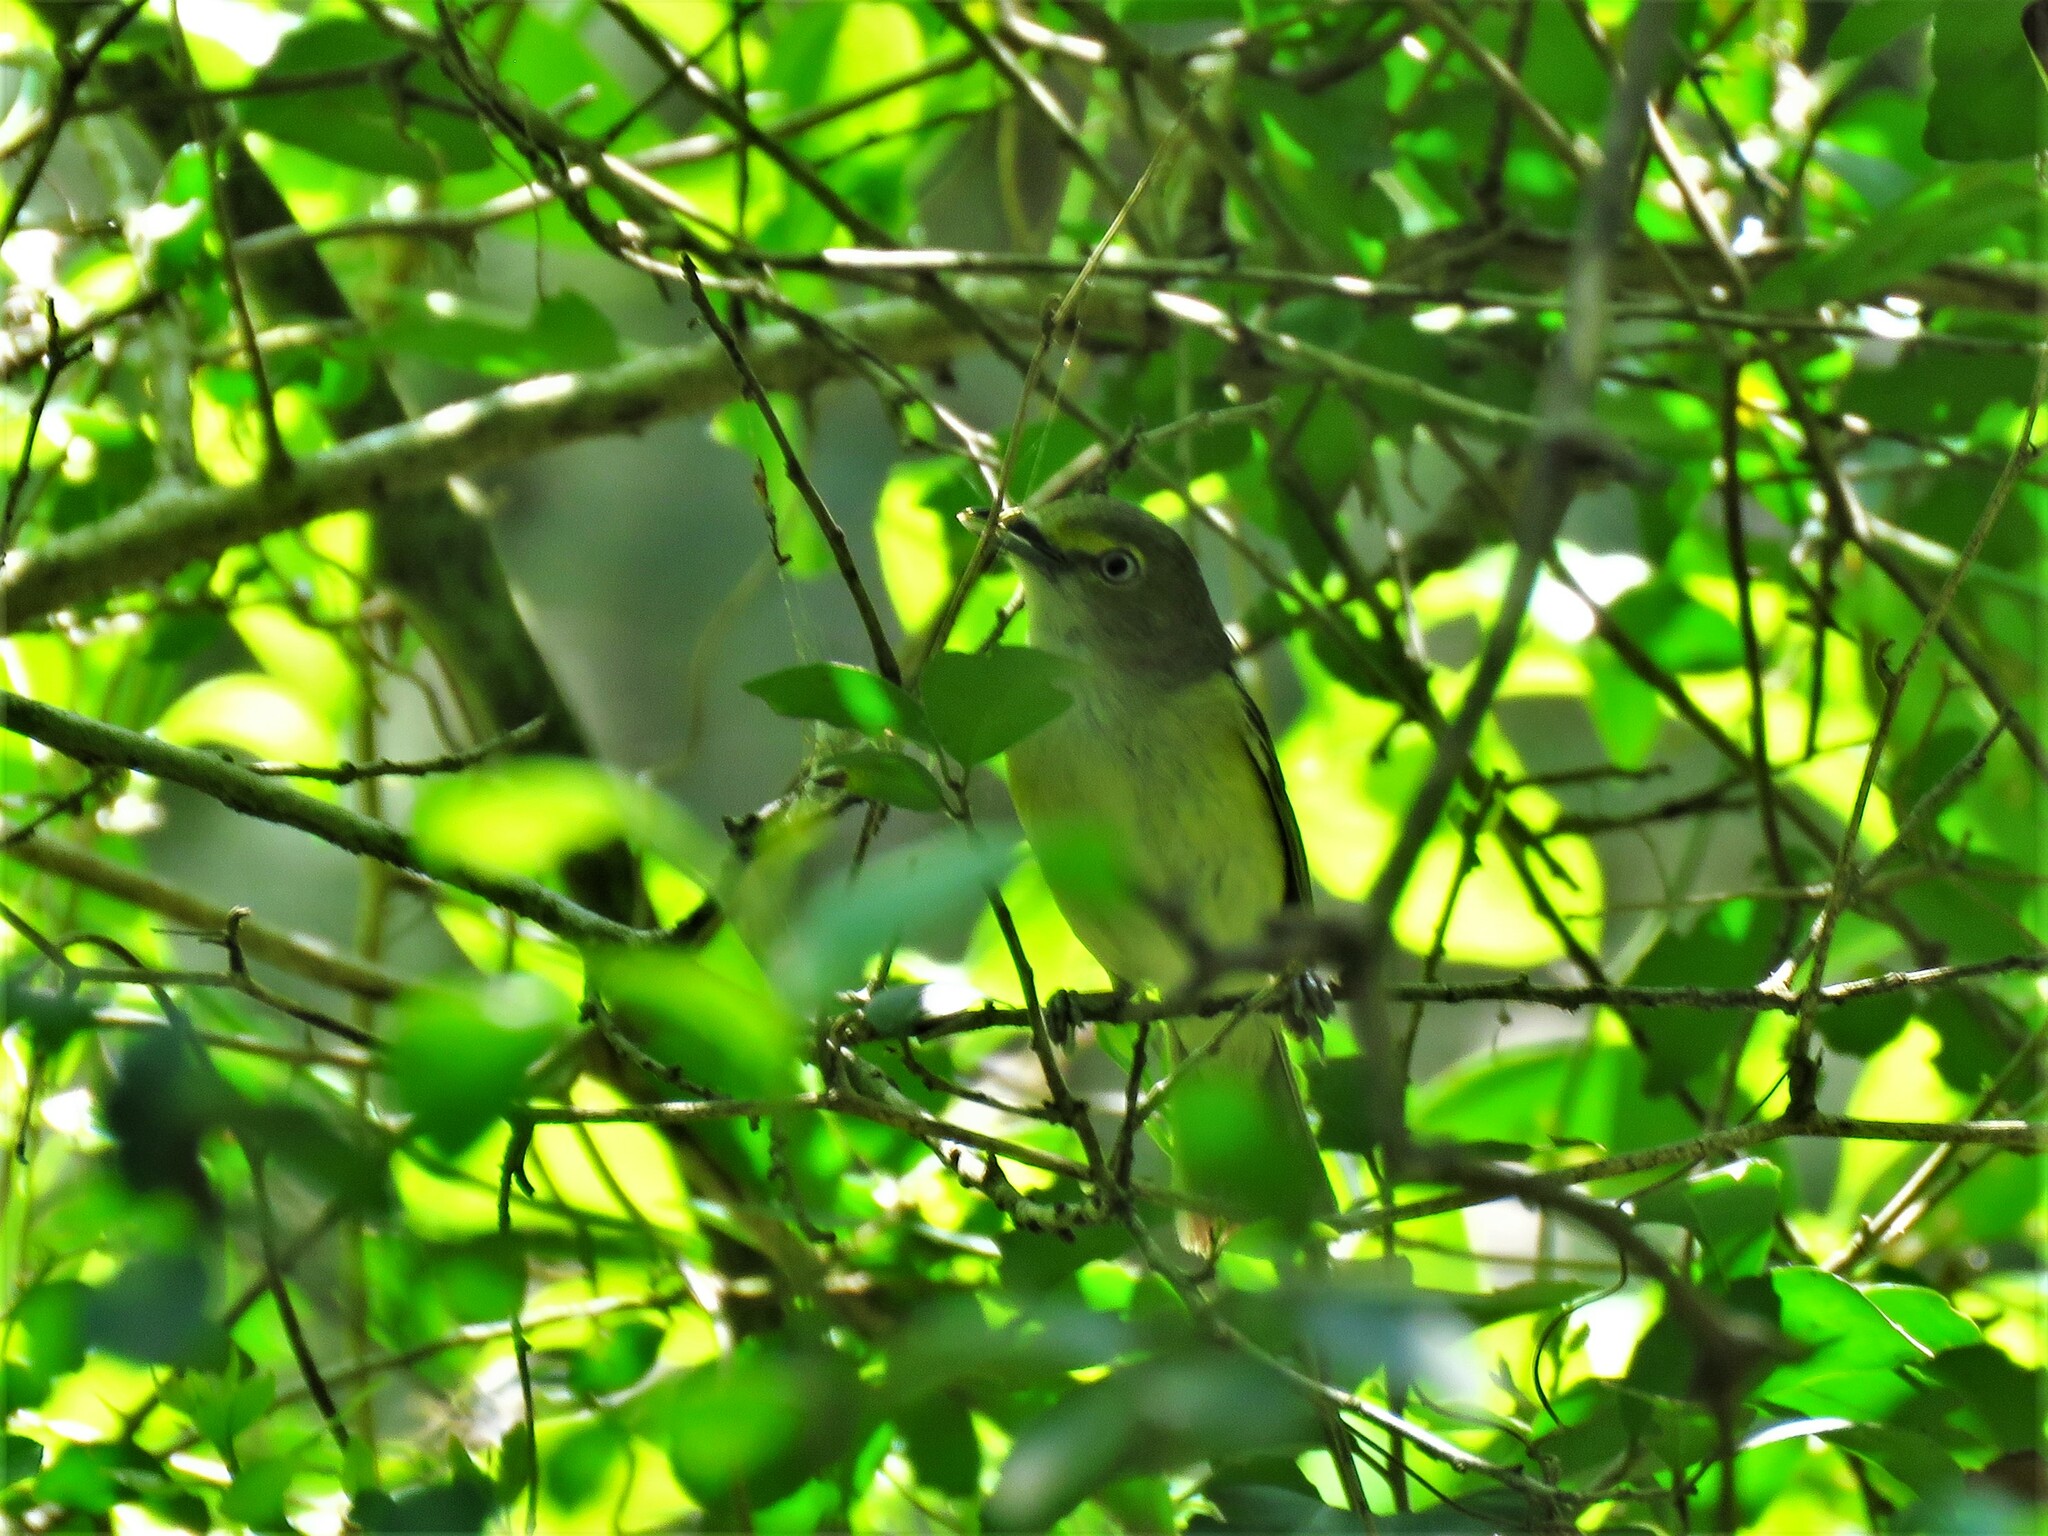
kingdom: Animalia
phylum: Chordata
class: Aves
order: Passeriformes
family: Vireonidae
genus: Vireo
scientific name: Vireo griseus
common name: White-eyed vireo
